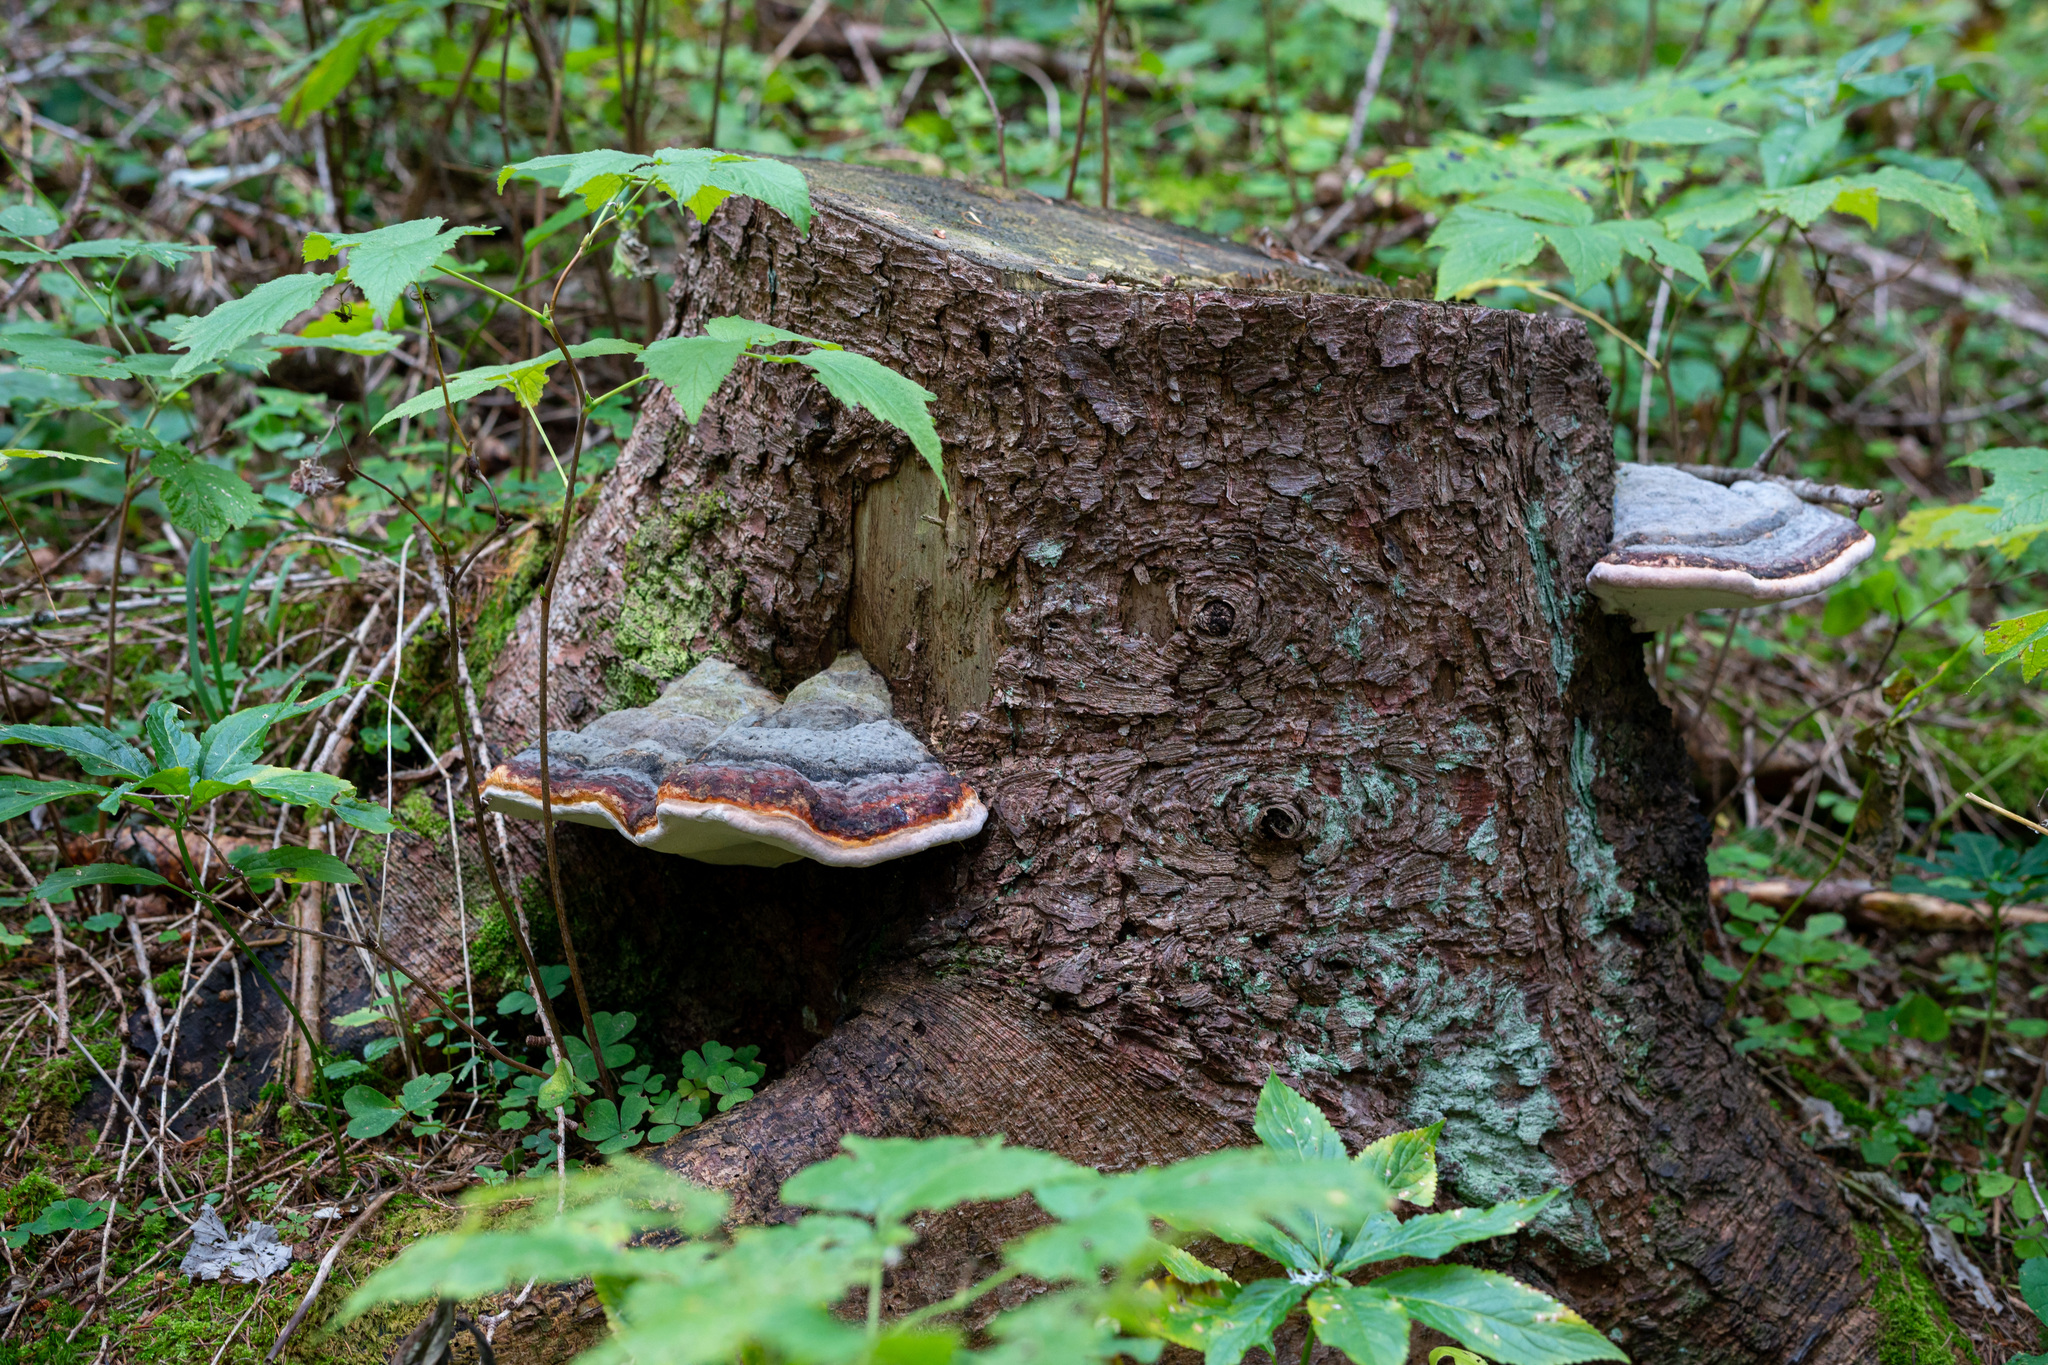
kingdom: Fungi
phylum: Basidiomycota
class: Agaricomycetes
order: Polyporales
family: Fomitopsidaceae
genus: Fomitopsis
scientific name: Fomitopsis pinicola
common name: Red-belted bracket
